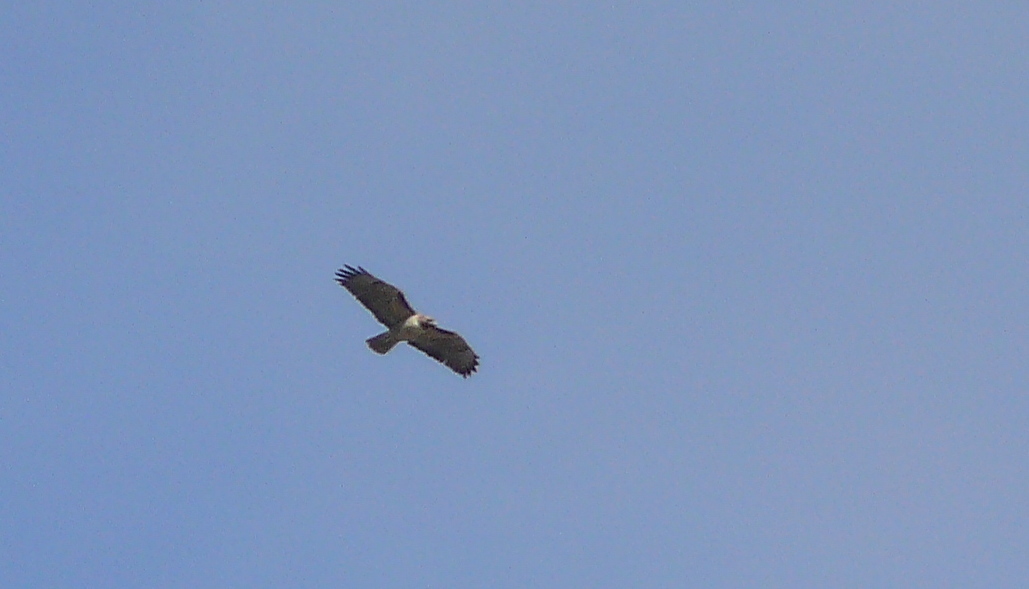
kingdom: Animalia
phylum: Chordata
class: Aves
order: Accipitriformes
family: Accipitridae
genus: Buteo
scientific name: Buteo jamaicensis
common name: Red-tailed hawk
